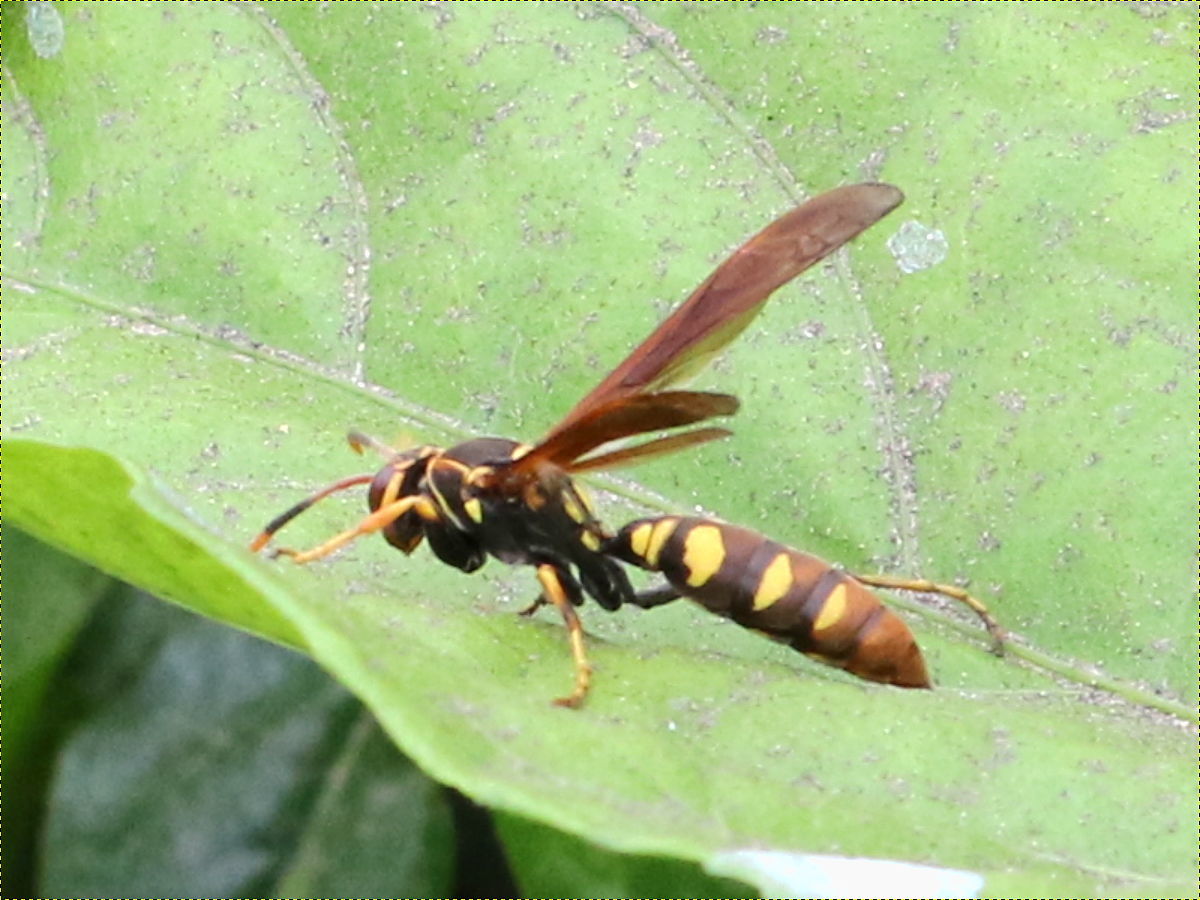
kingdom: Animalia
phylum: Arthropoda
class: Insecta
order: Hymenoptera
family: Eumenidae
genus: Polistes
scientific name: Polistes weyrauchorum
